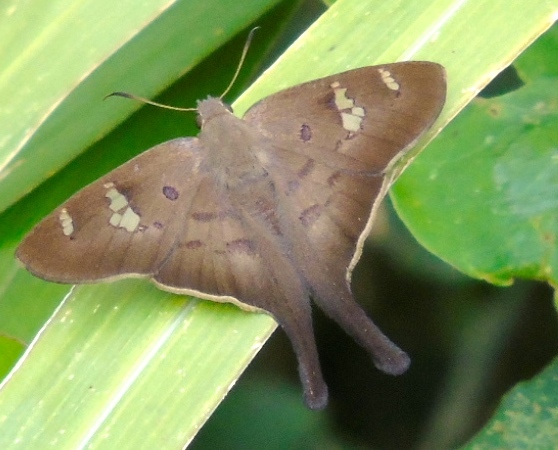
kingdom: Animalia
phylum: Arthropoda
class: Insecta
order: Lepidoptera
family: Hesperiidae
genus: Ectomis
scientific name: Ectomis
